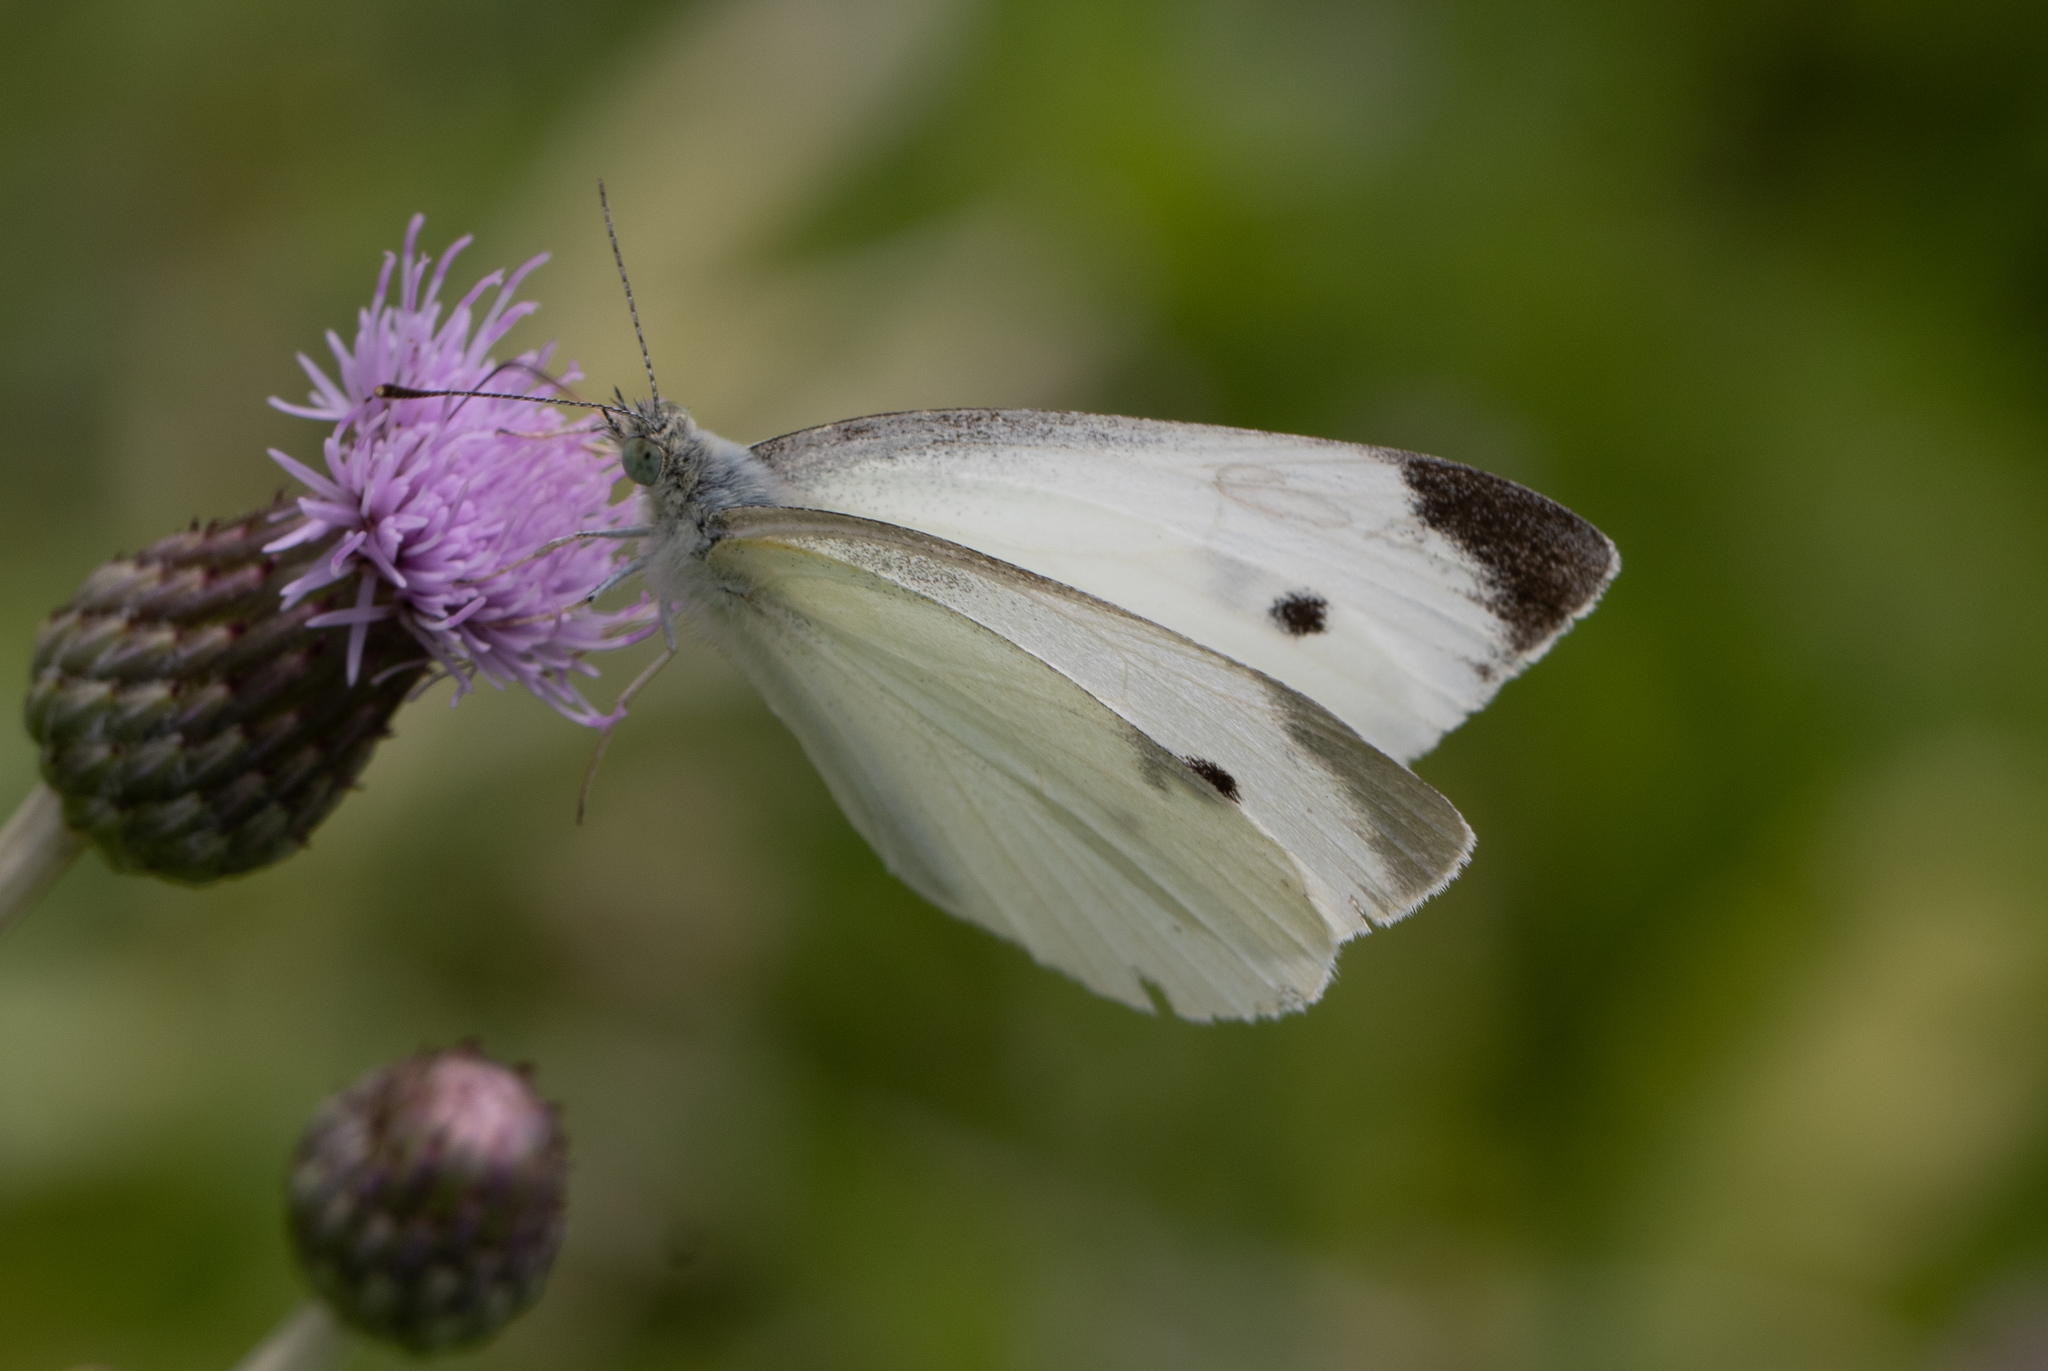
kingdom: Animalia
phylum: Arthropoda
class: Insecta
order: Lepidoptera
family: Pieridae
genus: Pieris
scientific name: Pieris rapae
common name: Small white
